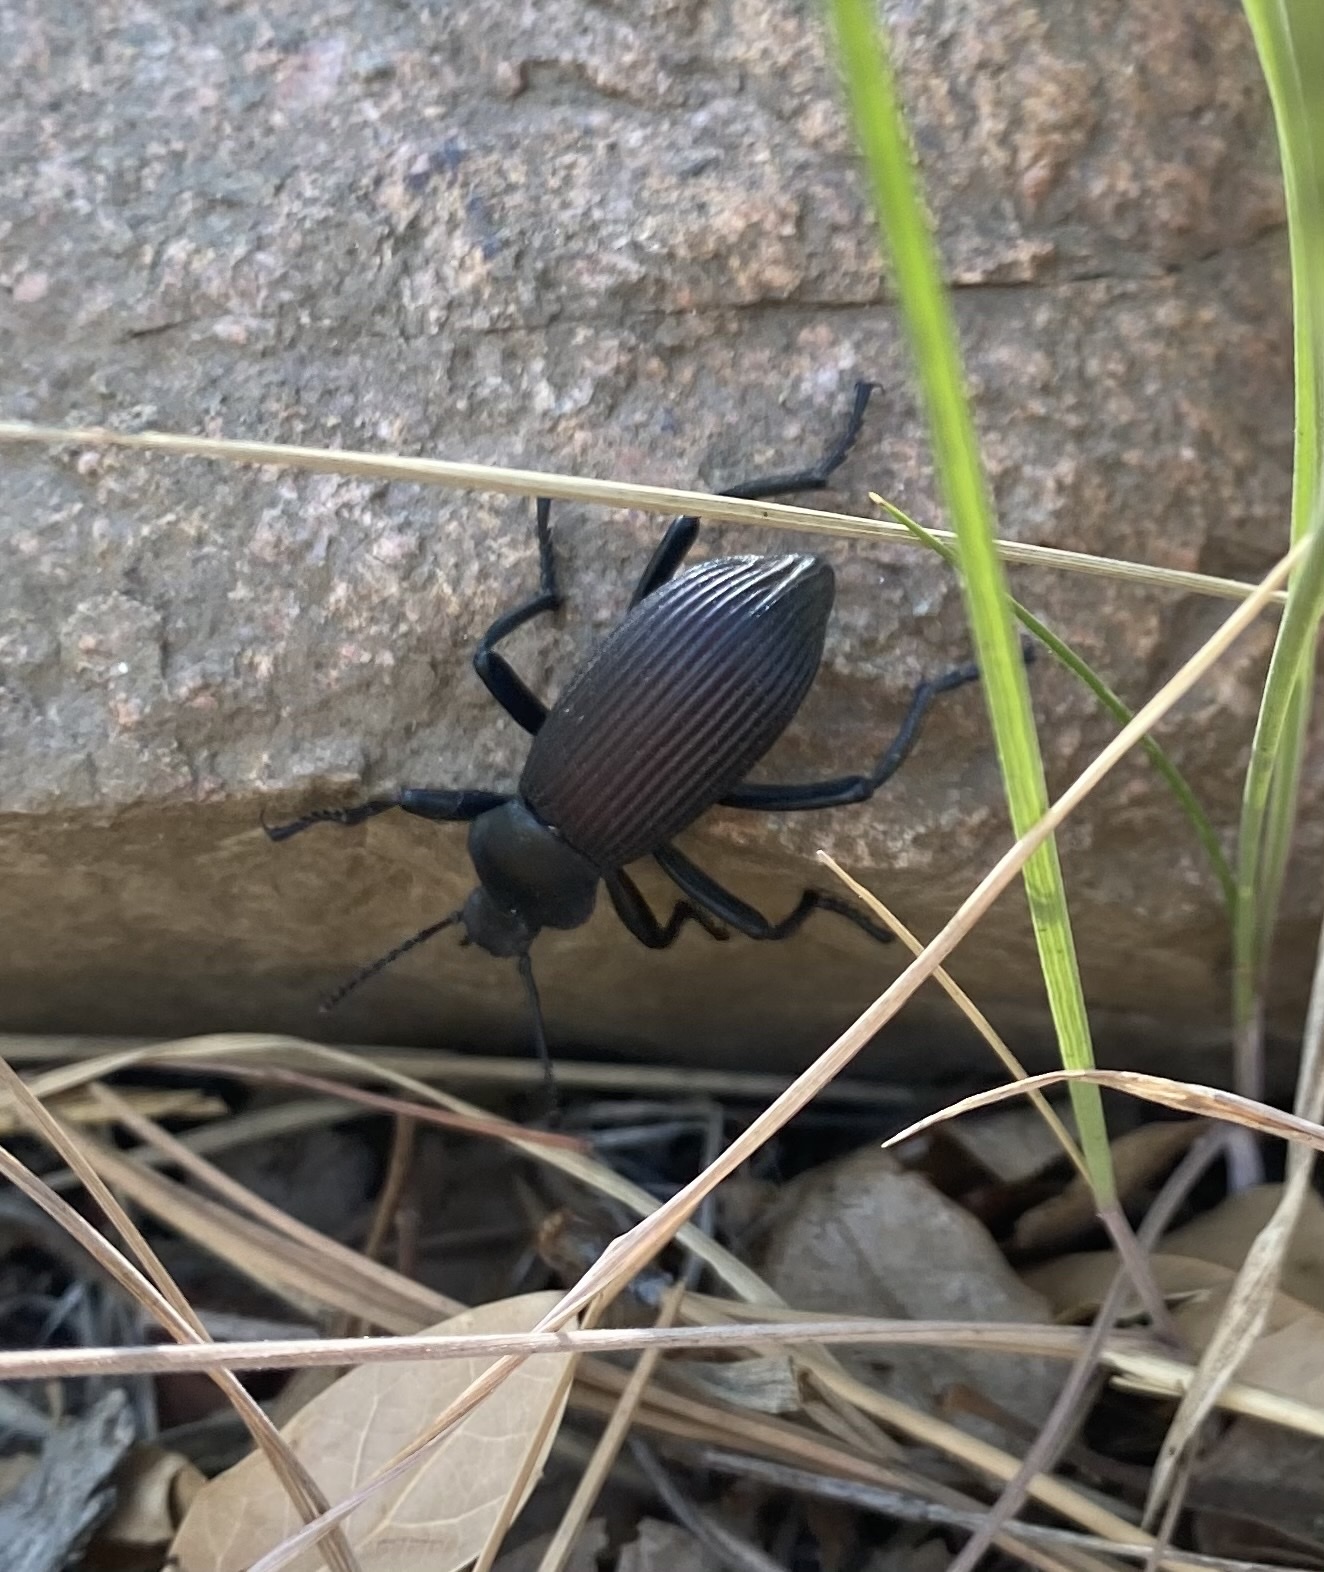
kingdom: Animalia
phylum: Arthropoda
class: Insecta
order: Coleoptera
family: Tenebrionidae
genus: Eleodes
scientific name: Eleodes obscura
